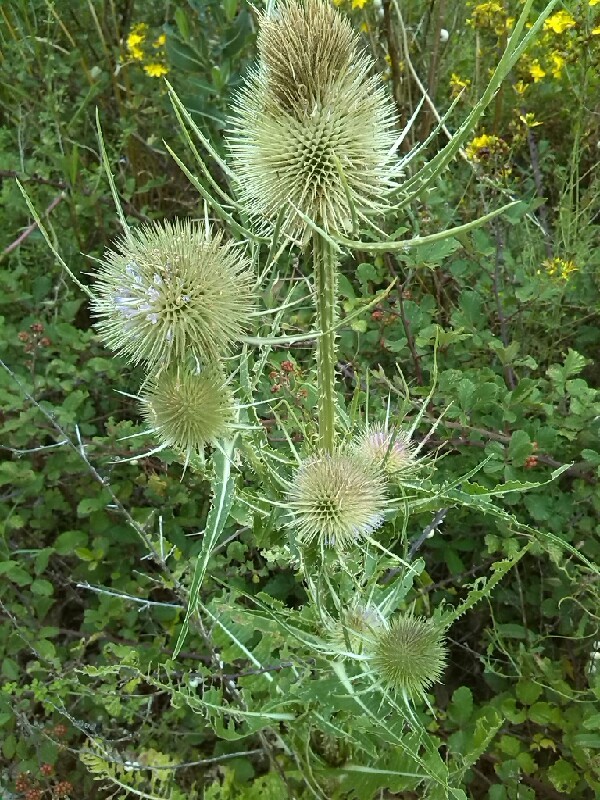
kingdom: Plantae
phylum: Tracheophyta
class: Magnoliopsida
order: Dipsacales
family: Caprifoliaceae
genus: Dipsacus
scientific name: Dipsacus fullonum
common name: Teasel
